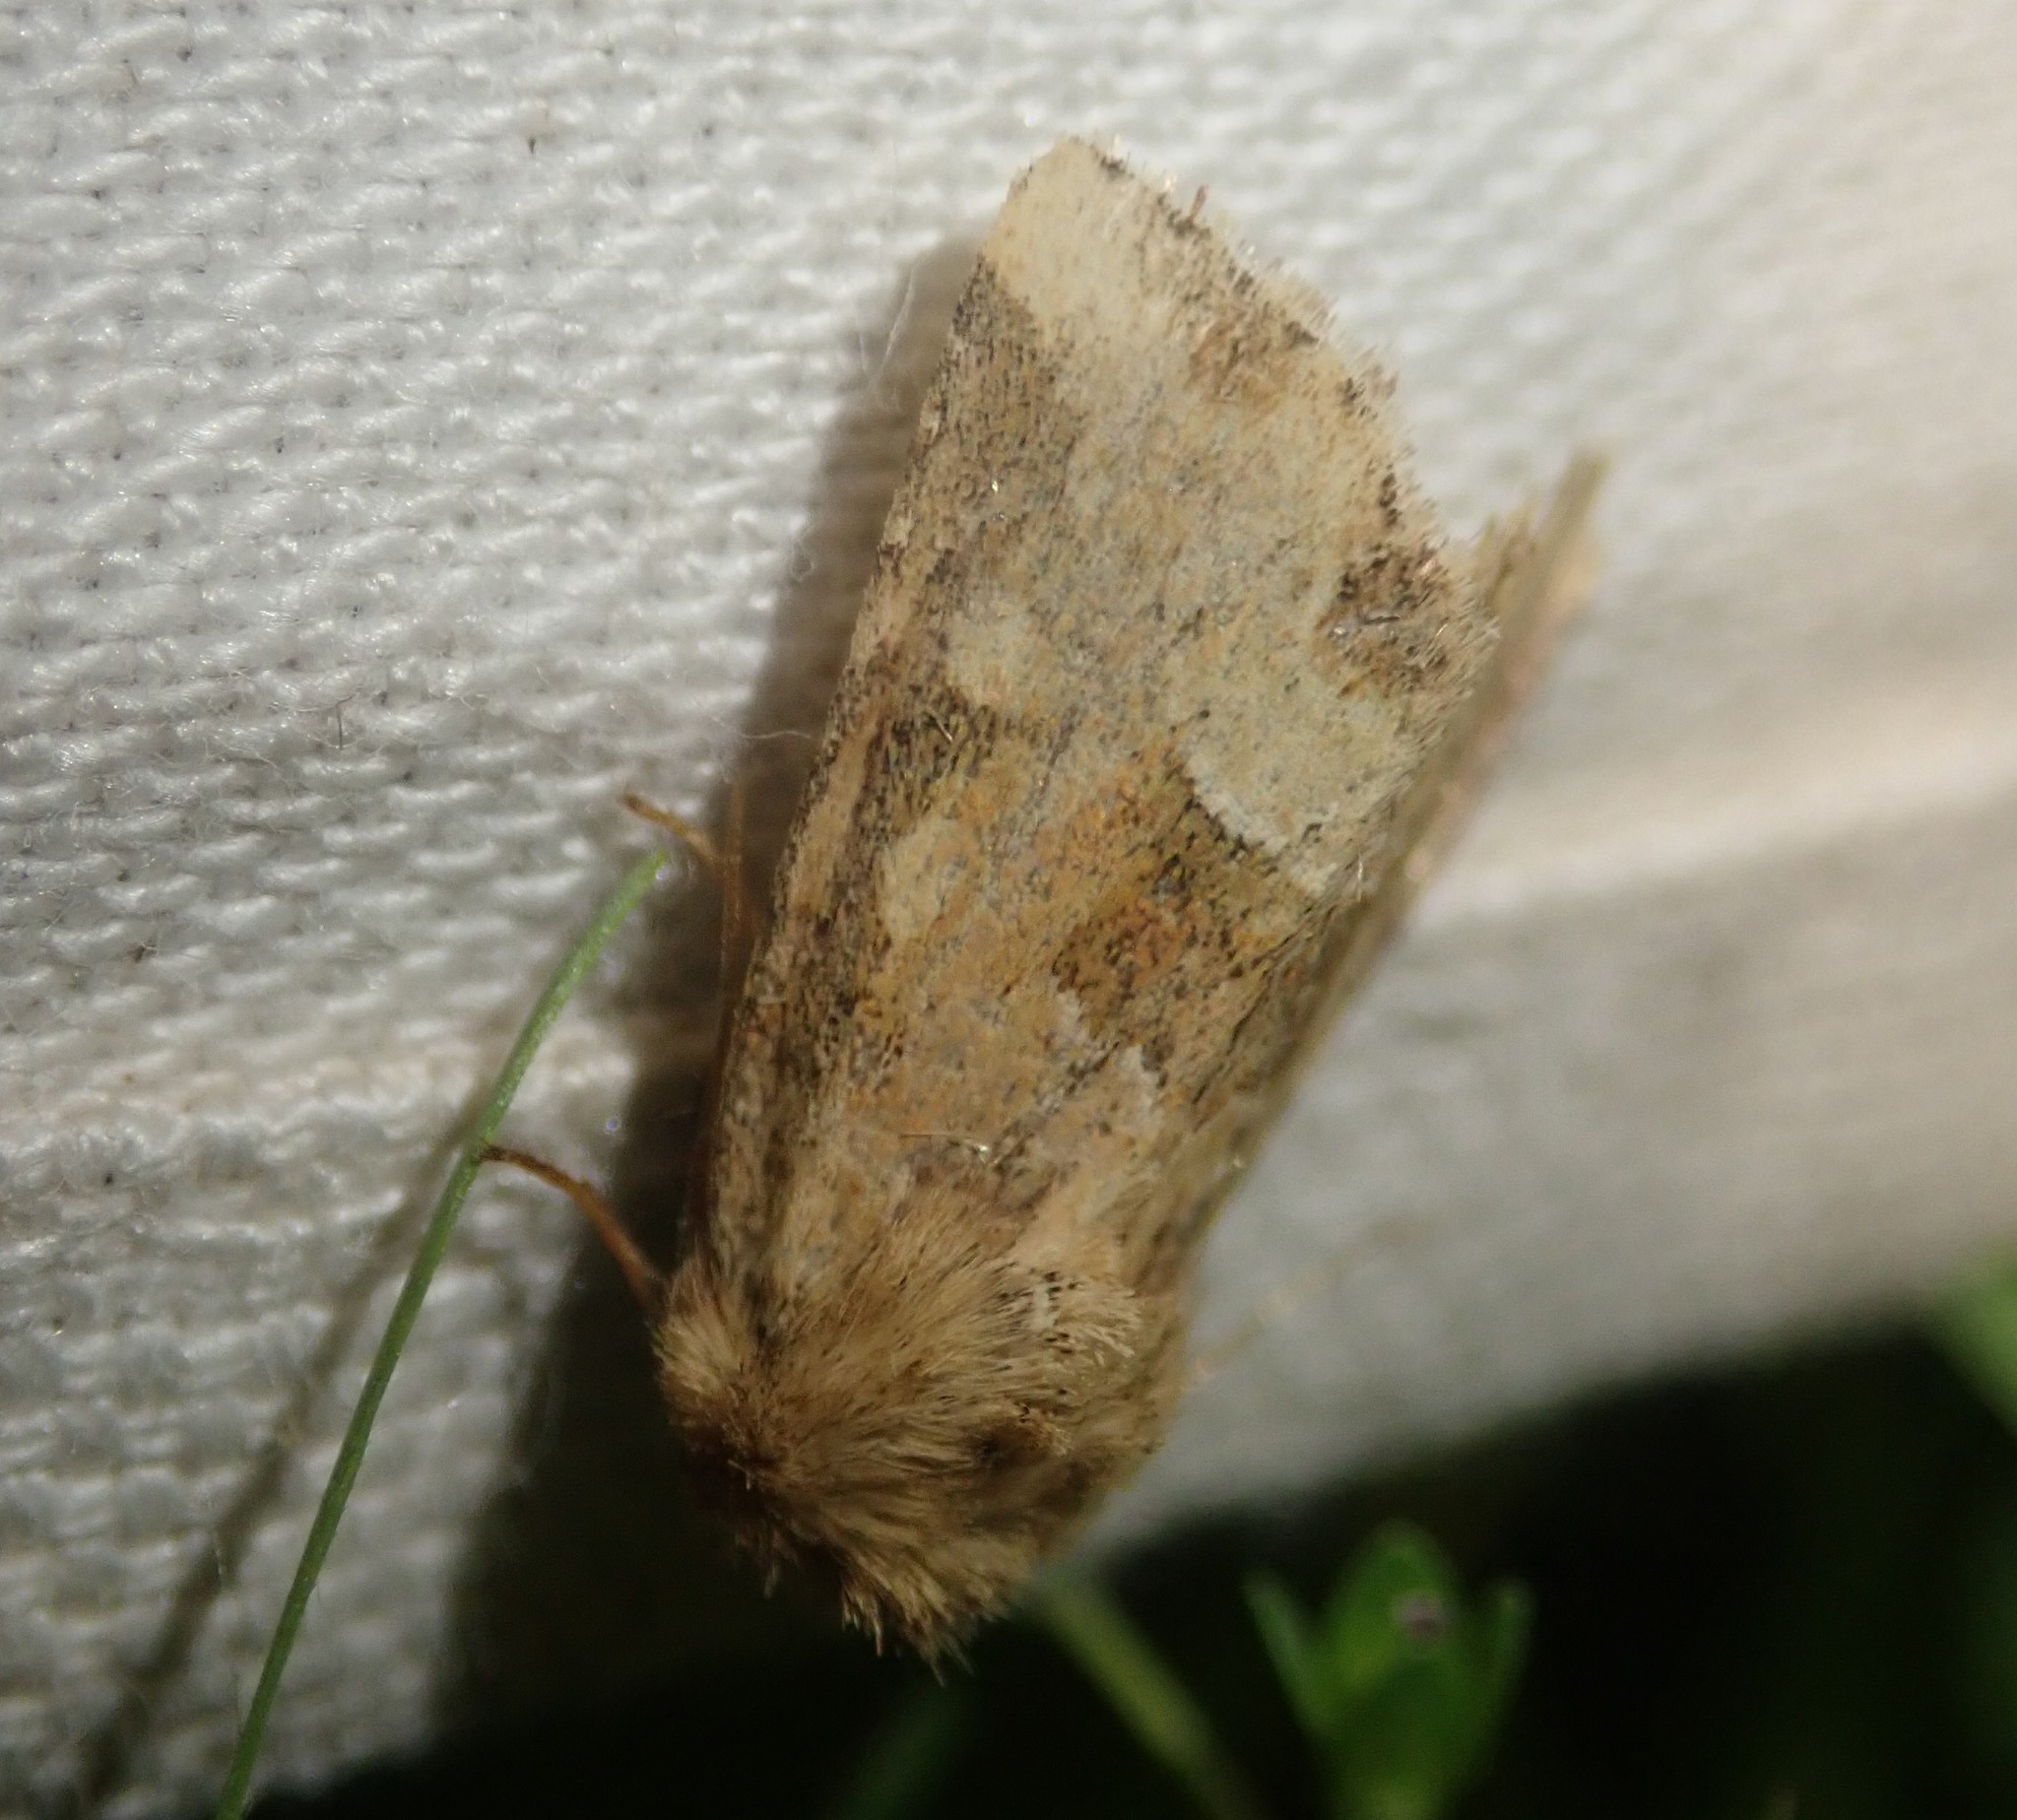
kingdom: Animalia
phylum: Arthropoda
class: Insecta
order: Lepidoptera
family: Noctuidae
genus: Oligia
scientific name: Oligia fasciuncula
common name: Middle-barred minor
